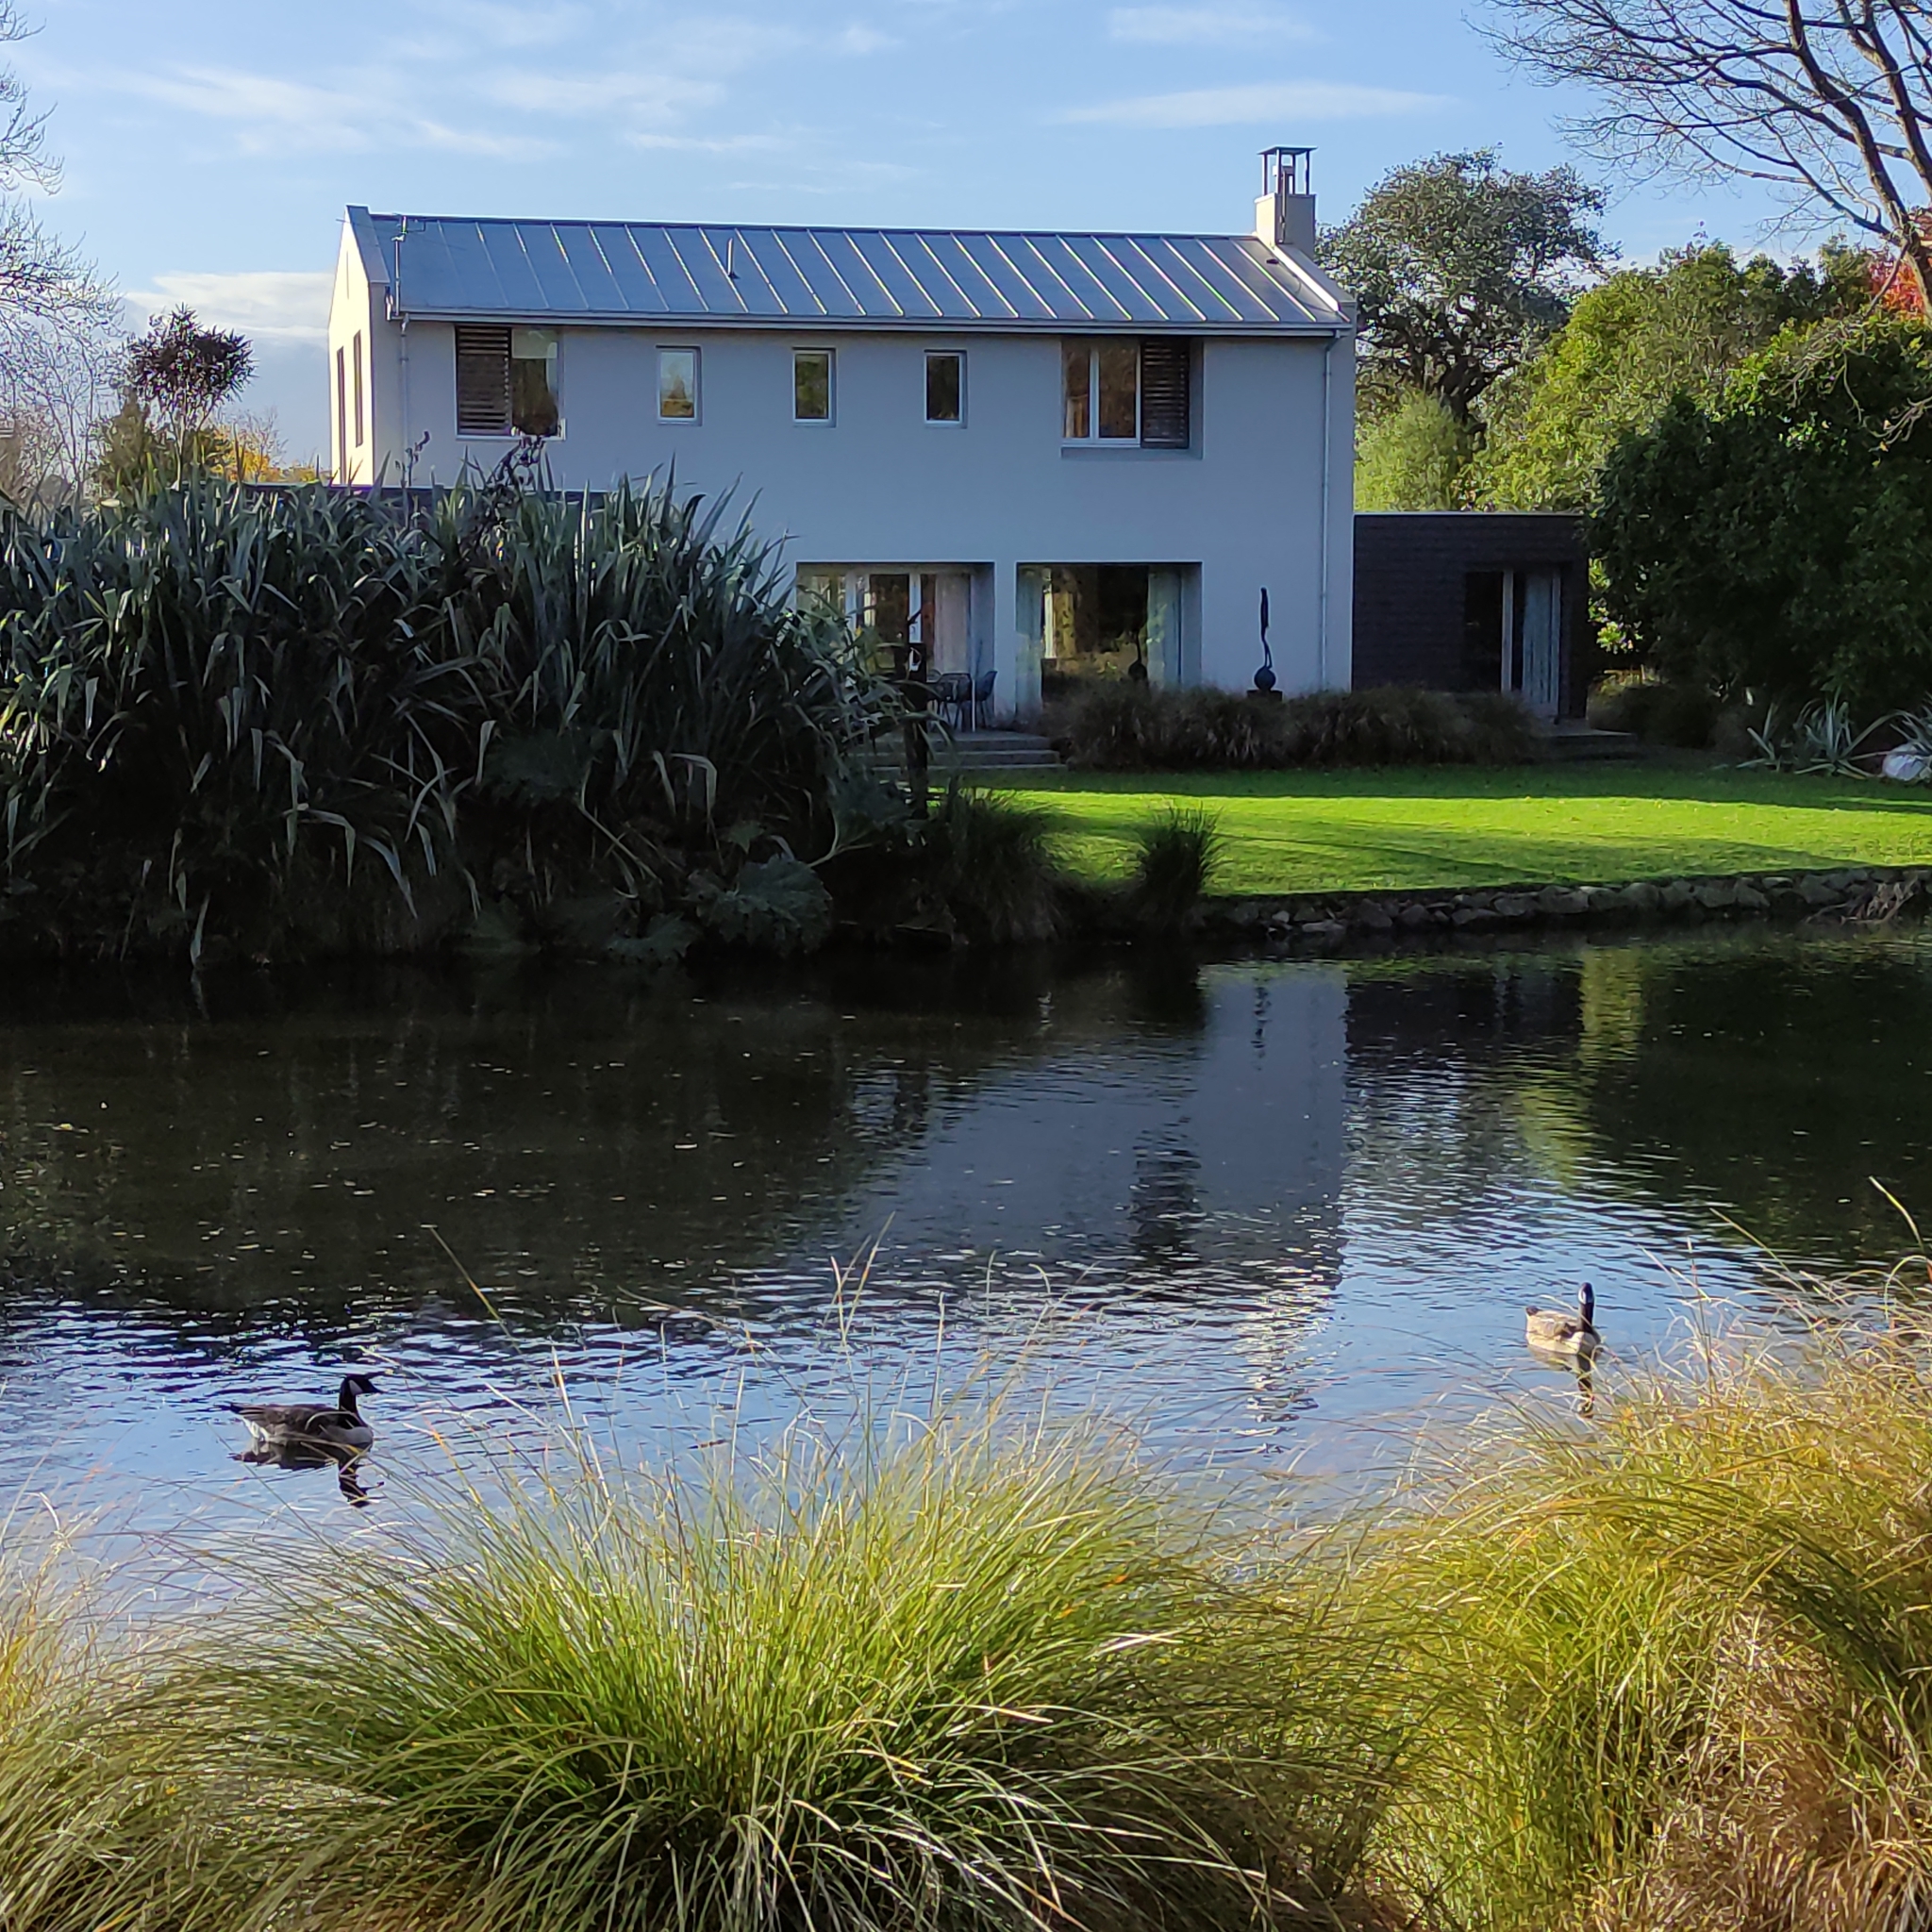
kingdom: Animalia
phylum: Chordata
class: Aves
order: Anseriformes
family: Anatidae
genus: Branta
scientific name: Branta canadensis
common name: Canada goose
